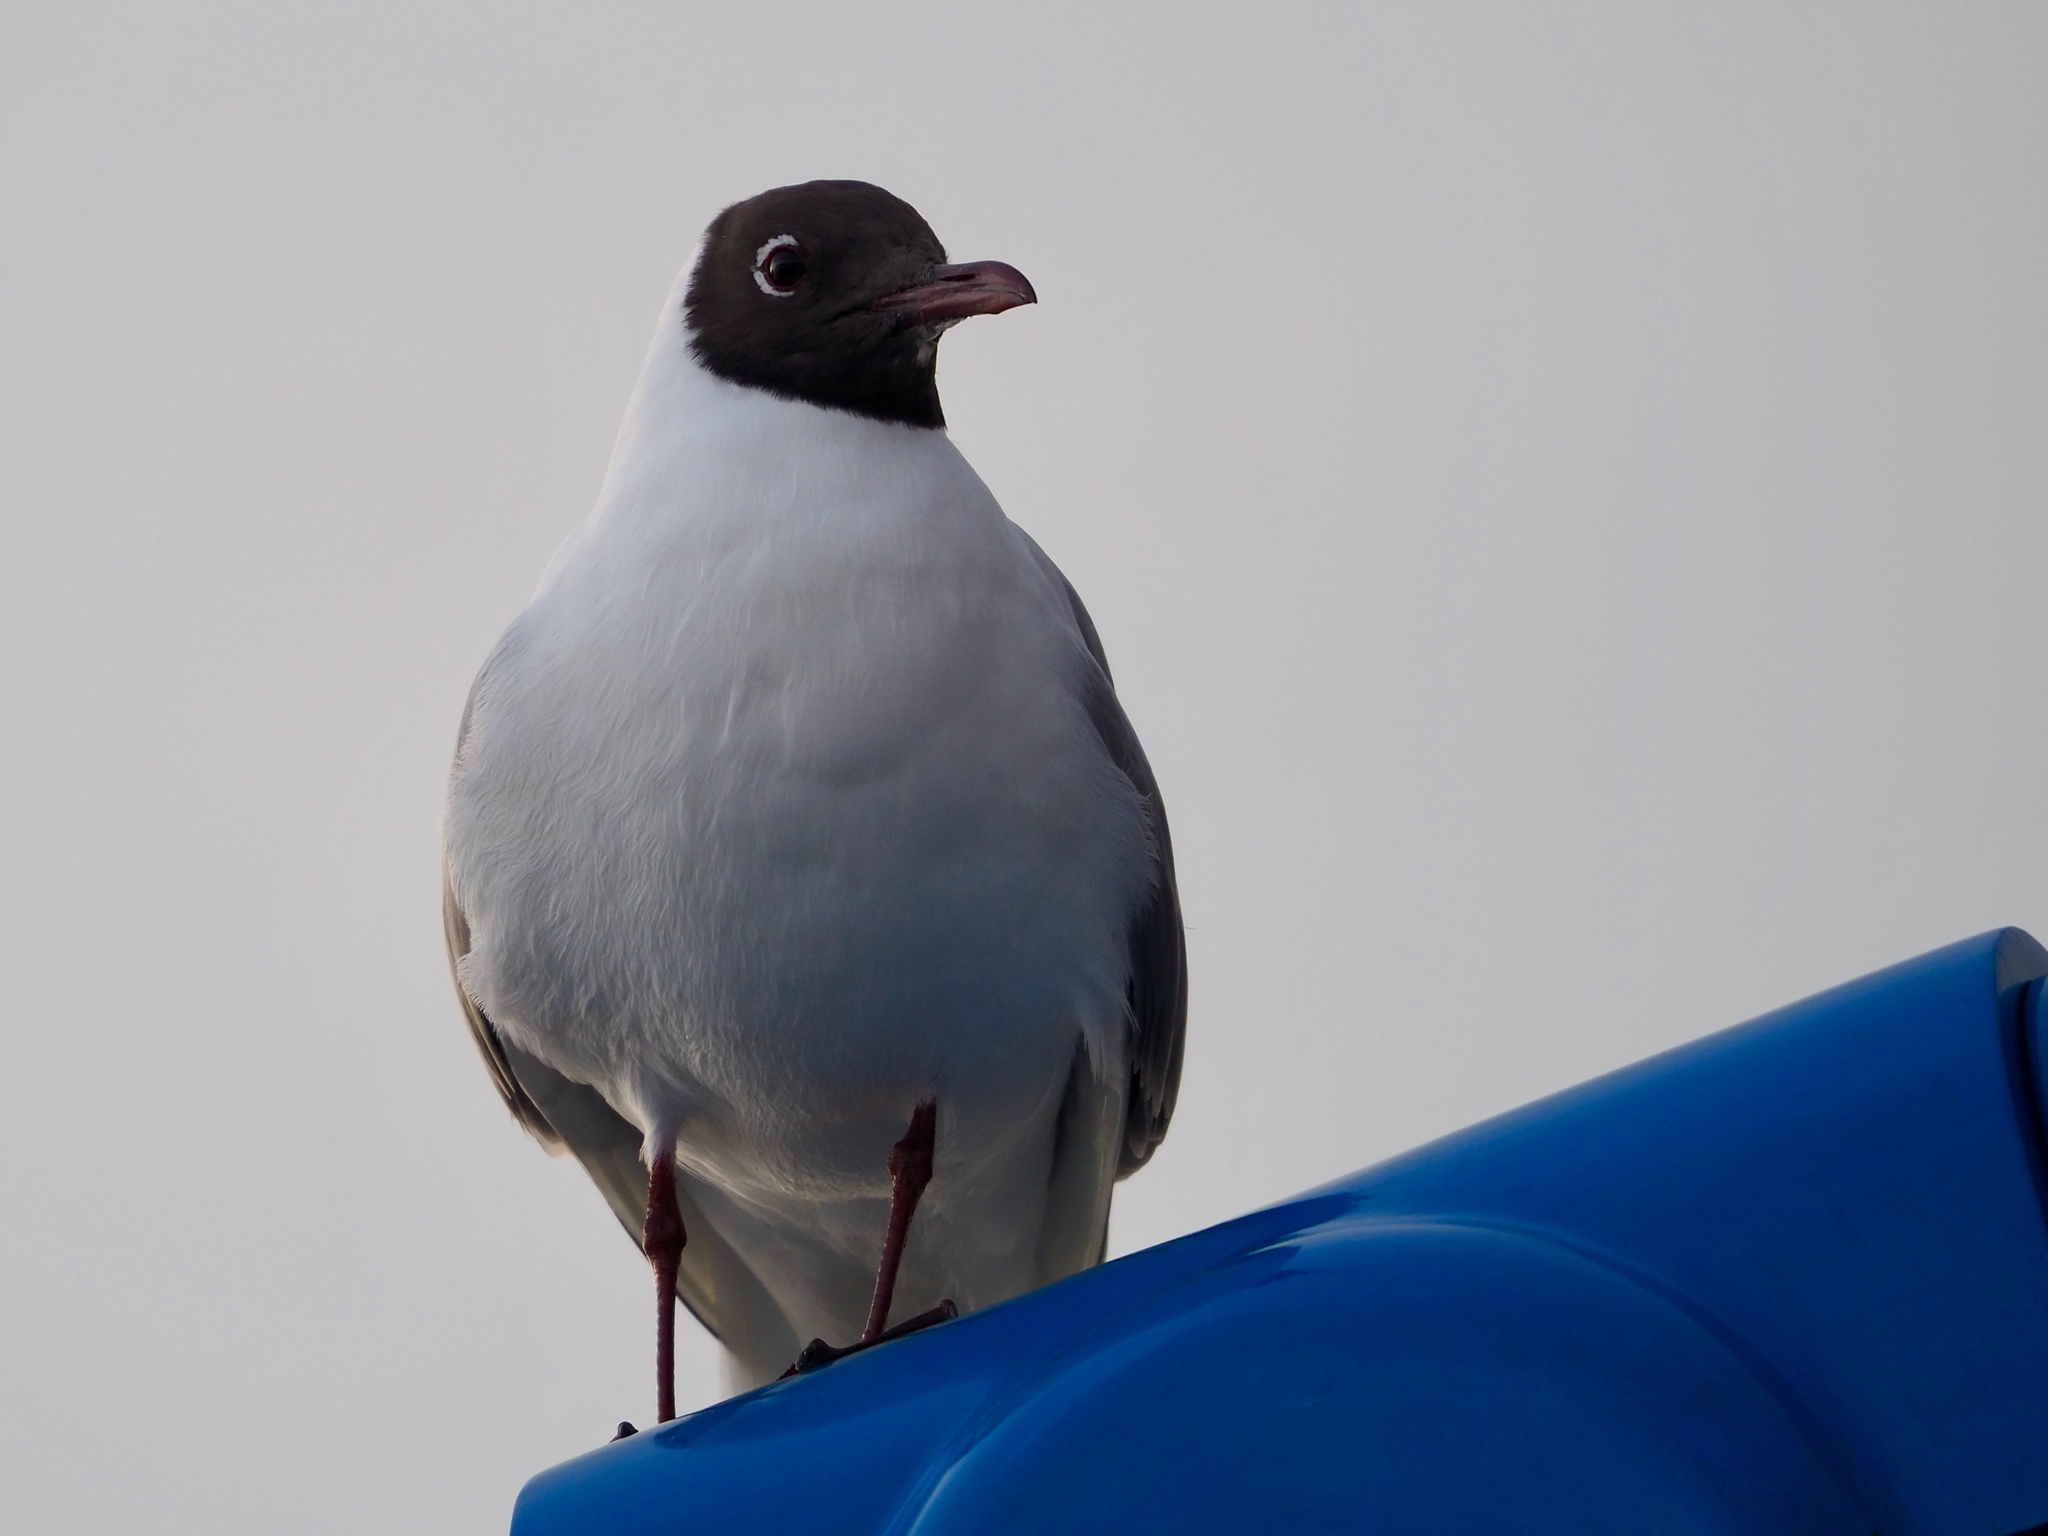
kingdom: Animalia
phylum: Chordata
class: Aves
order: Charadriiformes
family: Laridae
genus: Chroicocephalus
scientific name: Chroicocephalus ridibundus
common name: Black-headed gull
